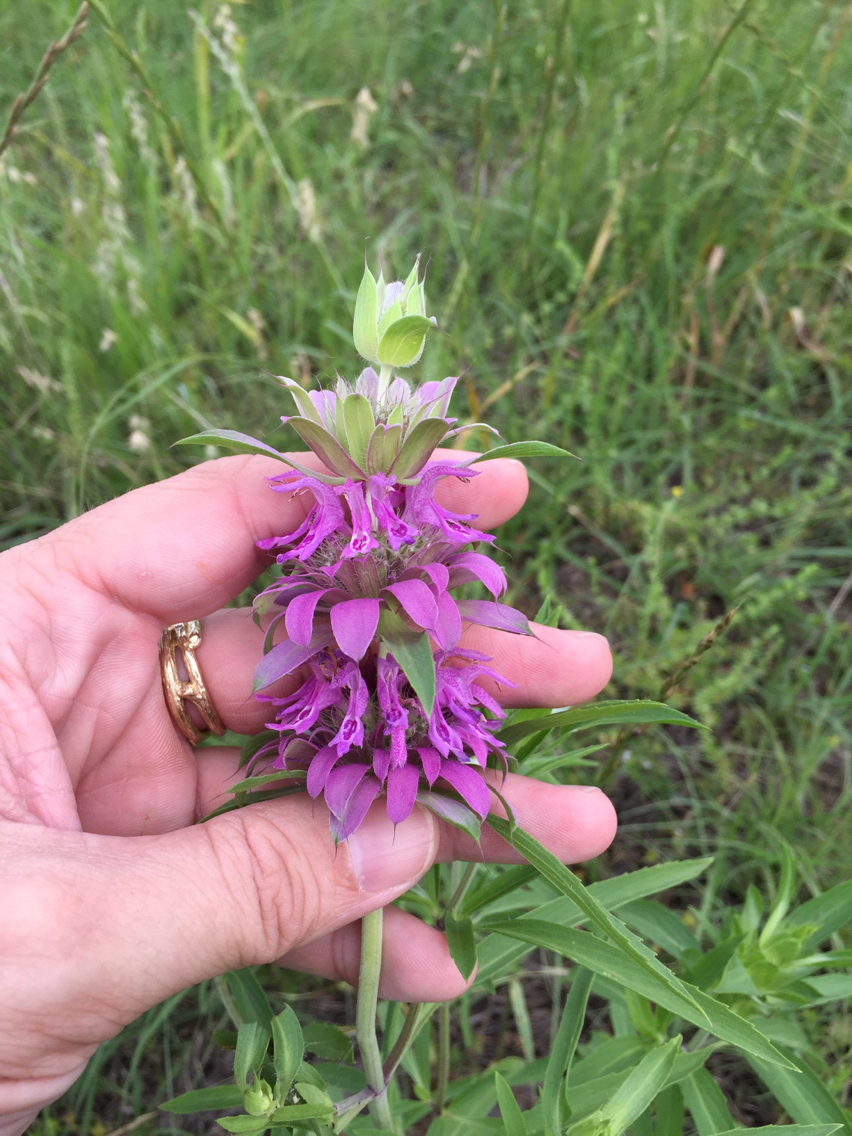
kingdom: Plantae
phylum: Tracheophyta
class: Magnoliopsida
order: Lamiales
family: Lamiaceae
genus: Monarda
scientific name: Monarda citriodora
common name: Lemon beebalm
